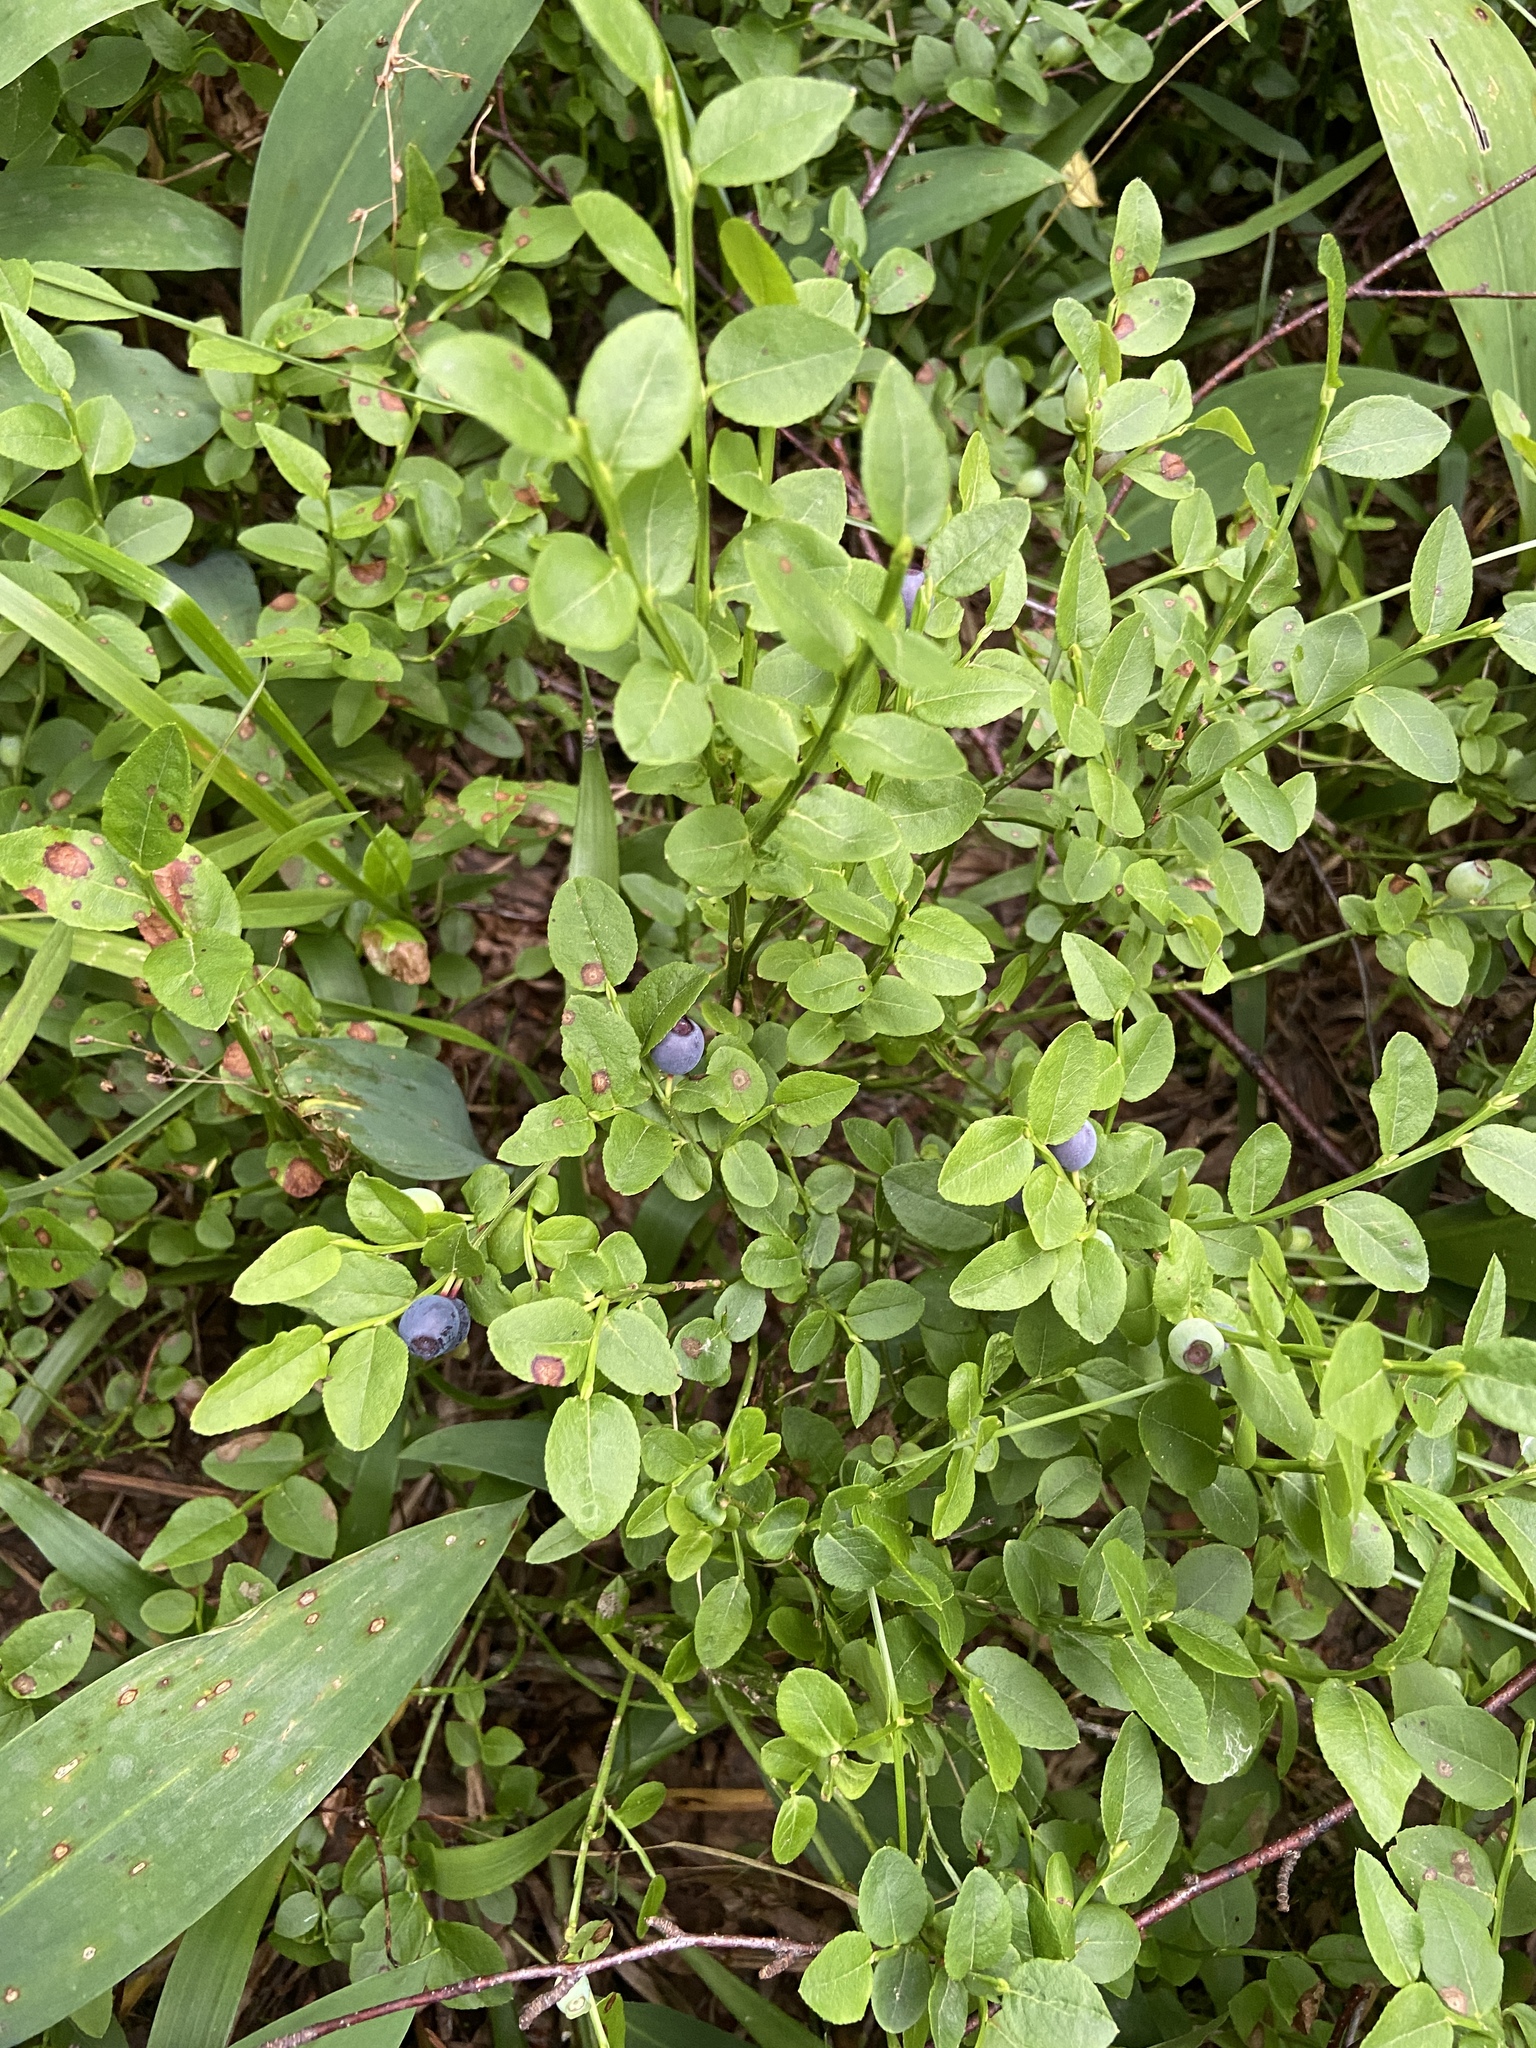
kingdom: Plantae
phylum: Tracheophyta
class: Magnoliopsida
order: Ericales
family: Ericaceae
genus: Vaccinium
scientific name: Vaccinium myrtillus
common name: Bilberry
